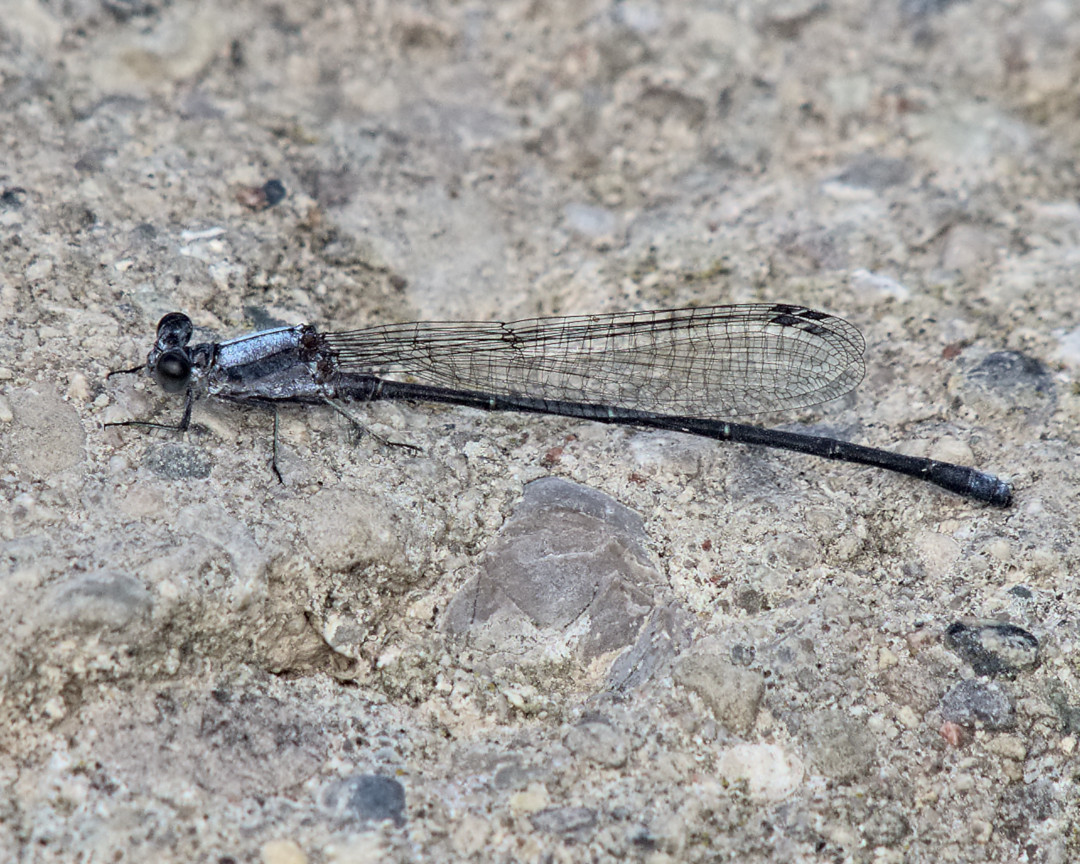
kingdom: Animalia
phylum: Arthropoda
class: Insecta
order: Odonata
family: Coenagrionidae
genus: Argia
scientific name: Argia moesta
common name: Powdered dancer
